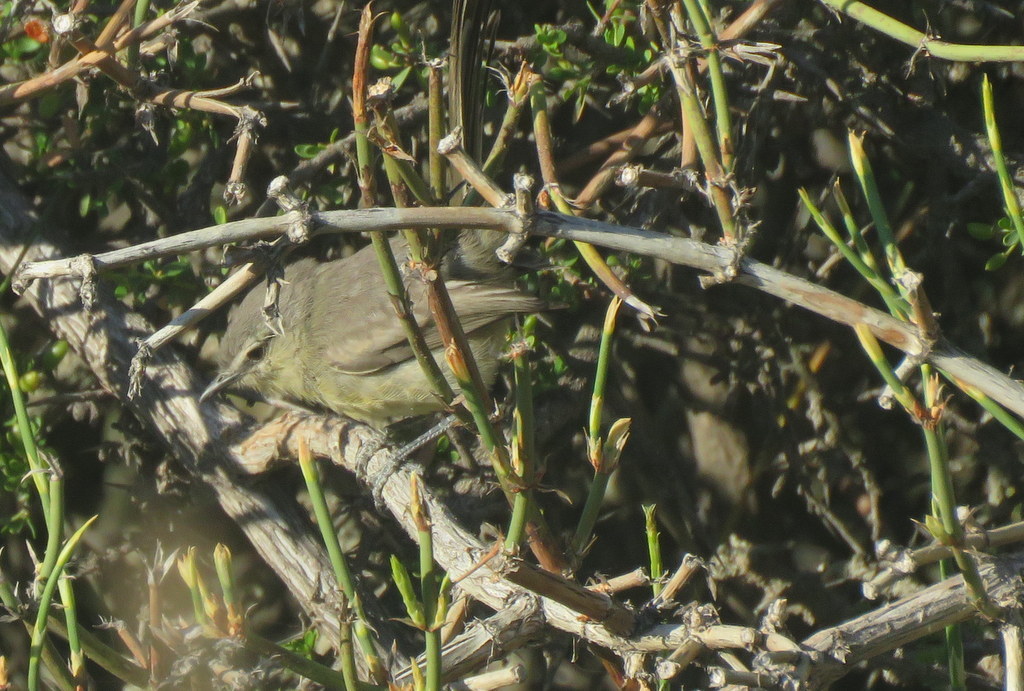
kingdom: Animalia
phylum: Chordata
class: Aves
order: Passeriformes
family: Tyrannidae
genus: Stigmatura
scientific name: Stigmatura budytoides
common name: Greater wagtail-tyrant
